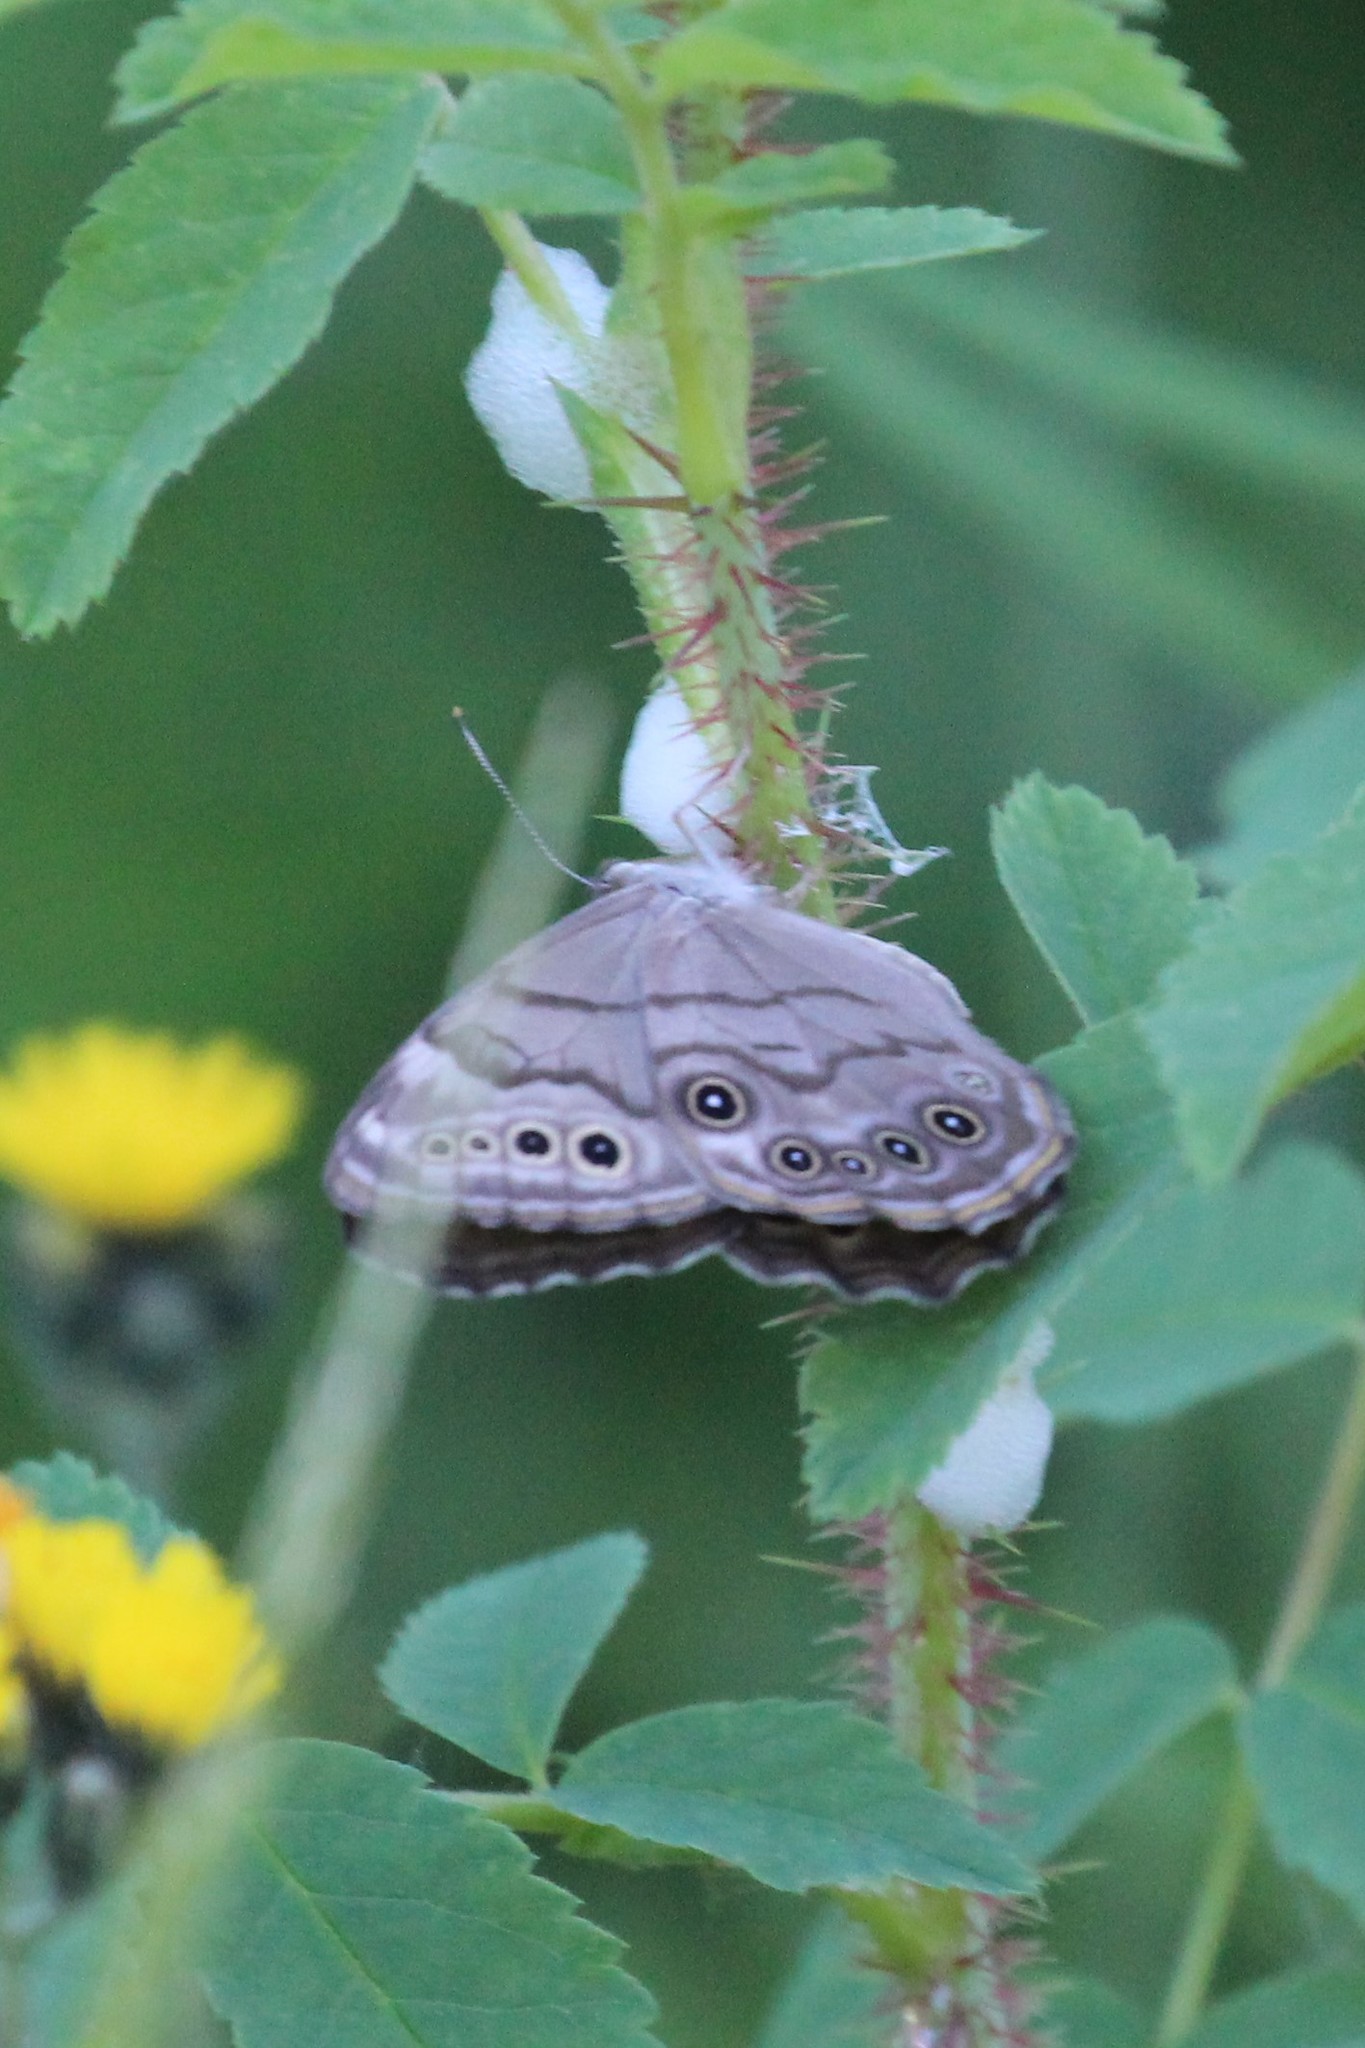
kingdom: Animalia
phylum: Arthropoda
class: Insecta
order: Lepidoptera
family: Nymphalidae
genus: Lethe
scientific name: Lethe anthedon
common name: Northern pearly-eye
